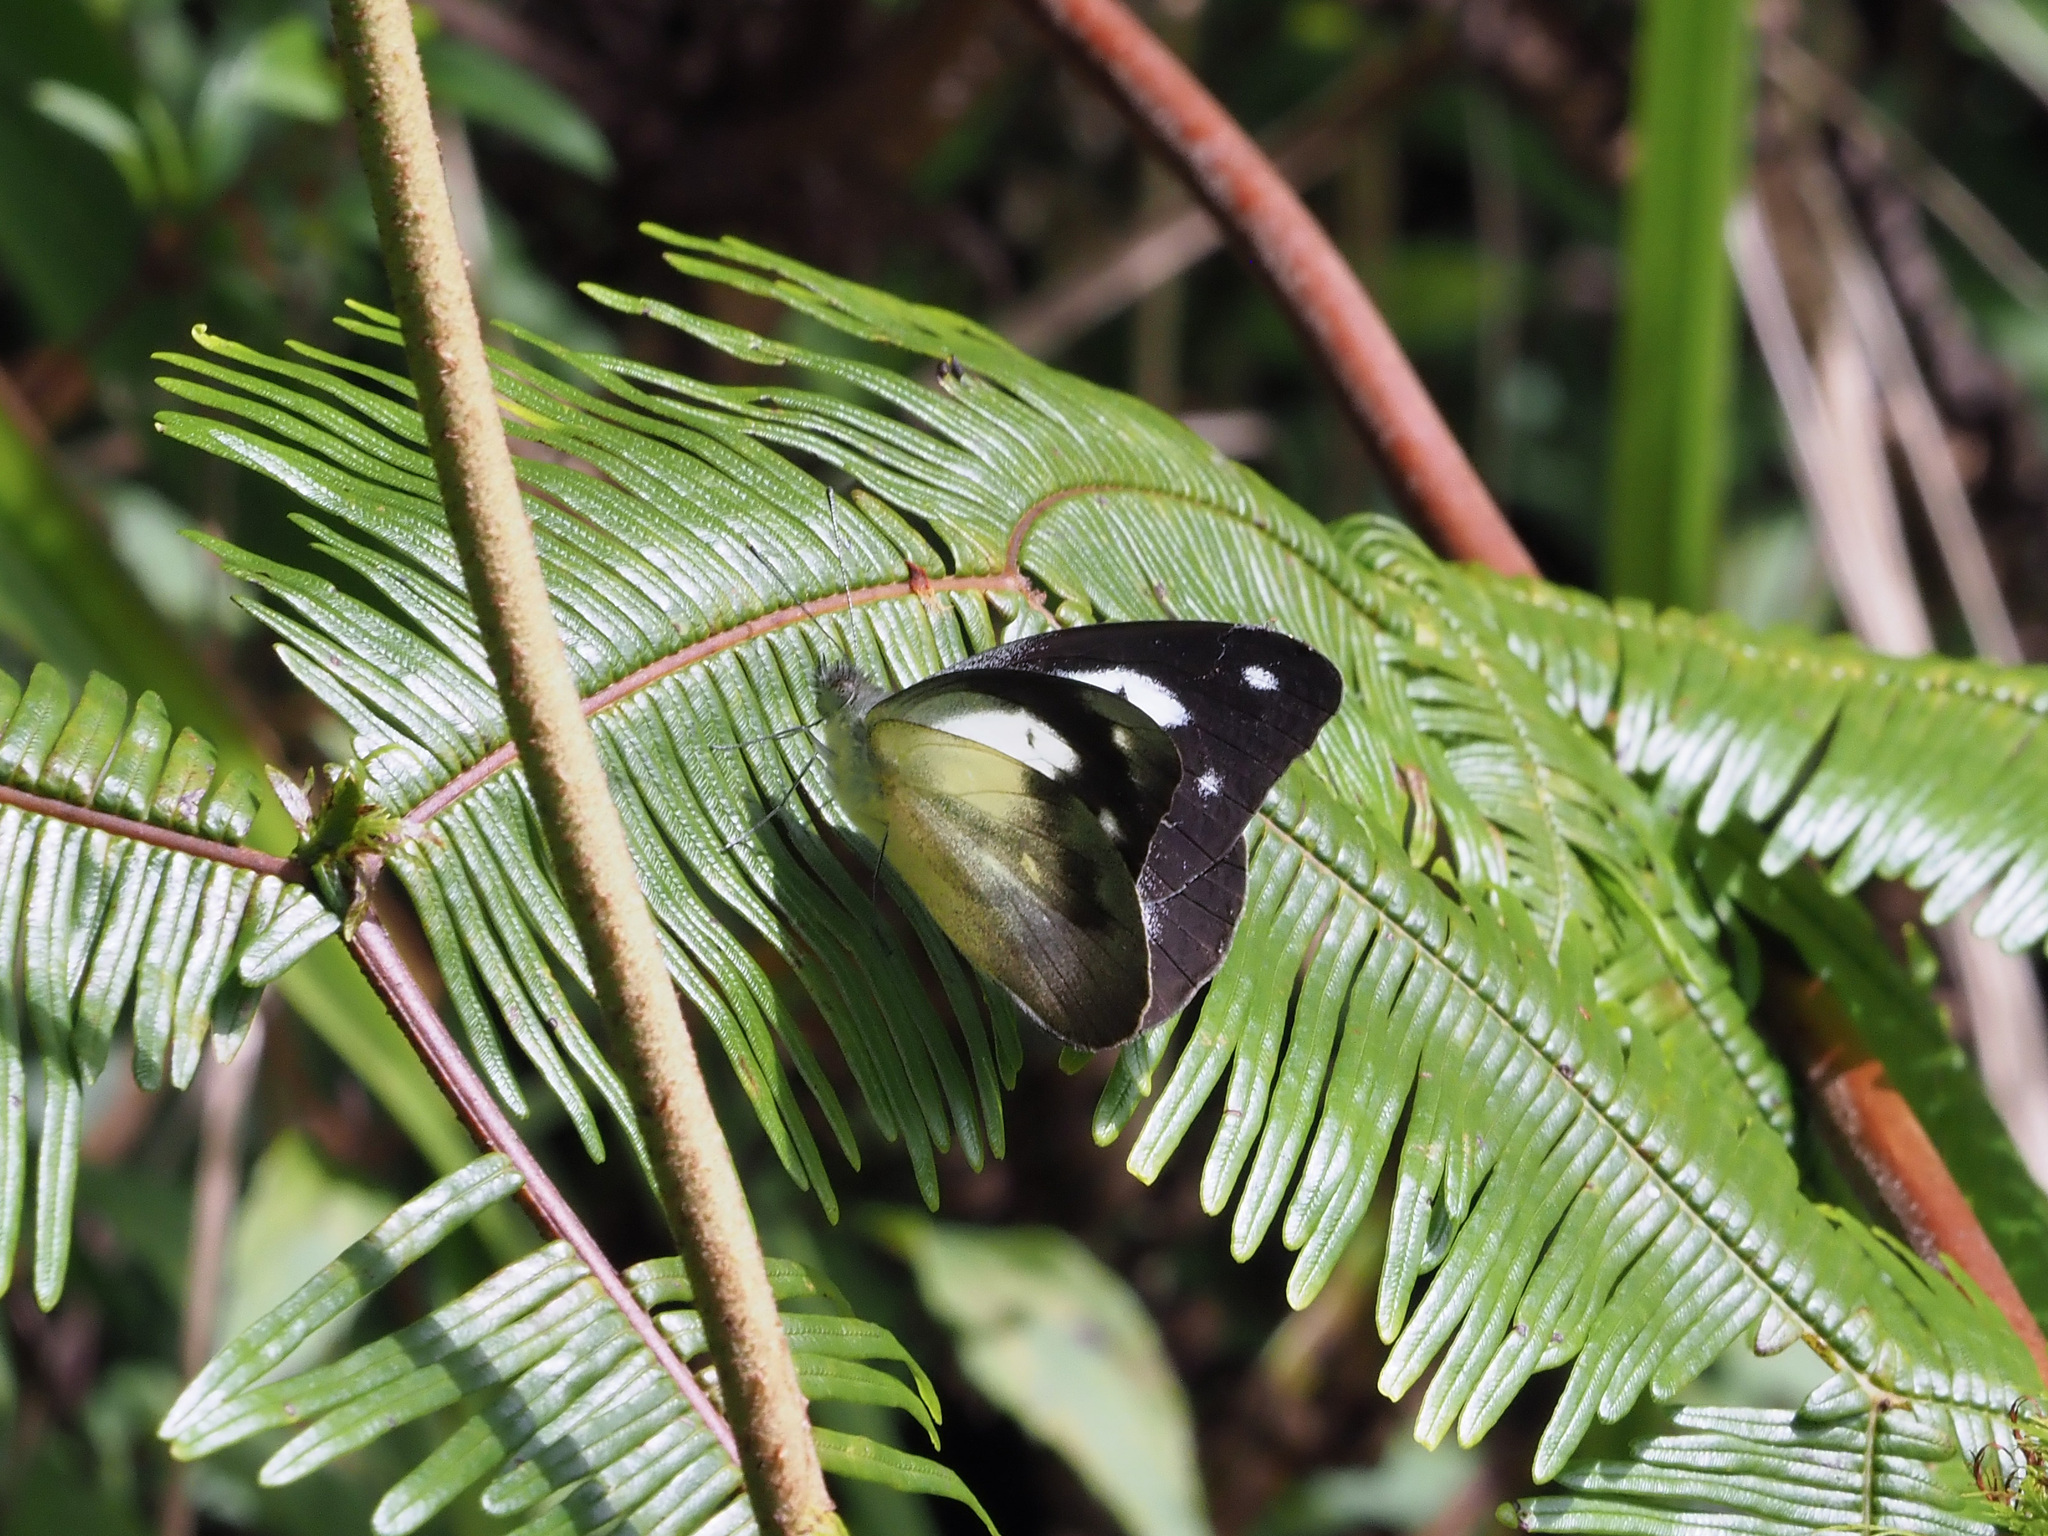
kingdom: Animalia
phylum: Arthropoda
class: Insecta
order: Lepidoptera
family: Pieridae
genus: Appias
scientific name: Appias pandione
